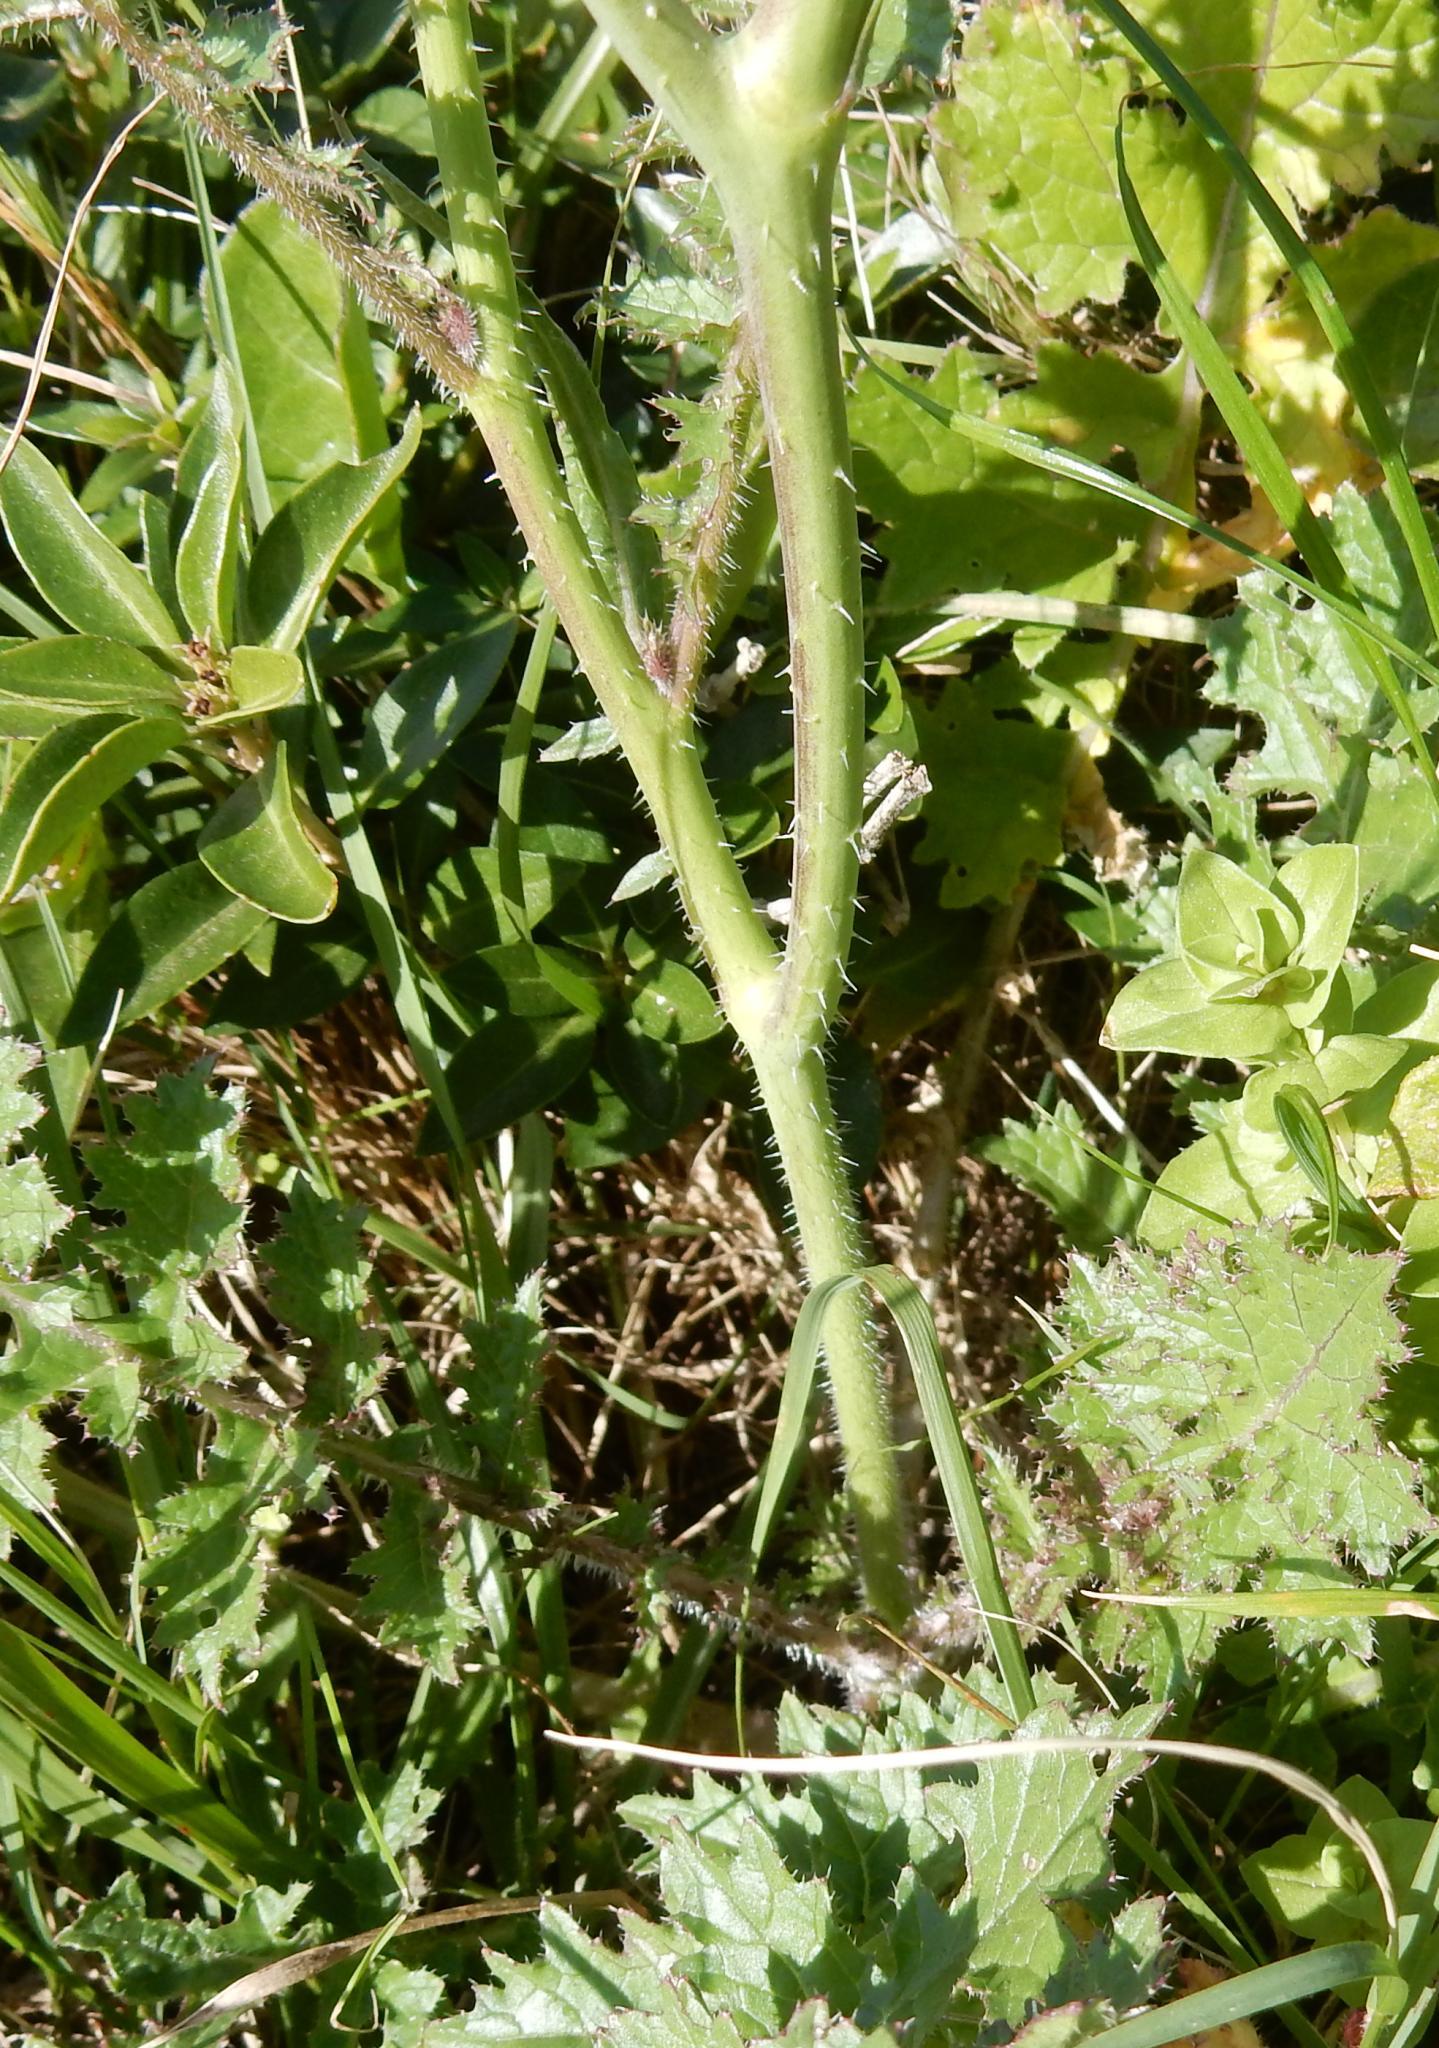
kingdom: Plantae
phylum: Tracheophyta
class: Magnoliopsida
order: Brassicales
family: Brassicaceae
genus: Brassica
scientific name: Brassica tournefortii
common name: Pale cabbage
